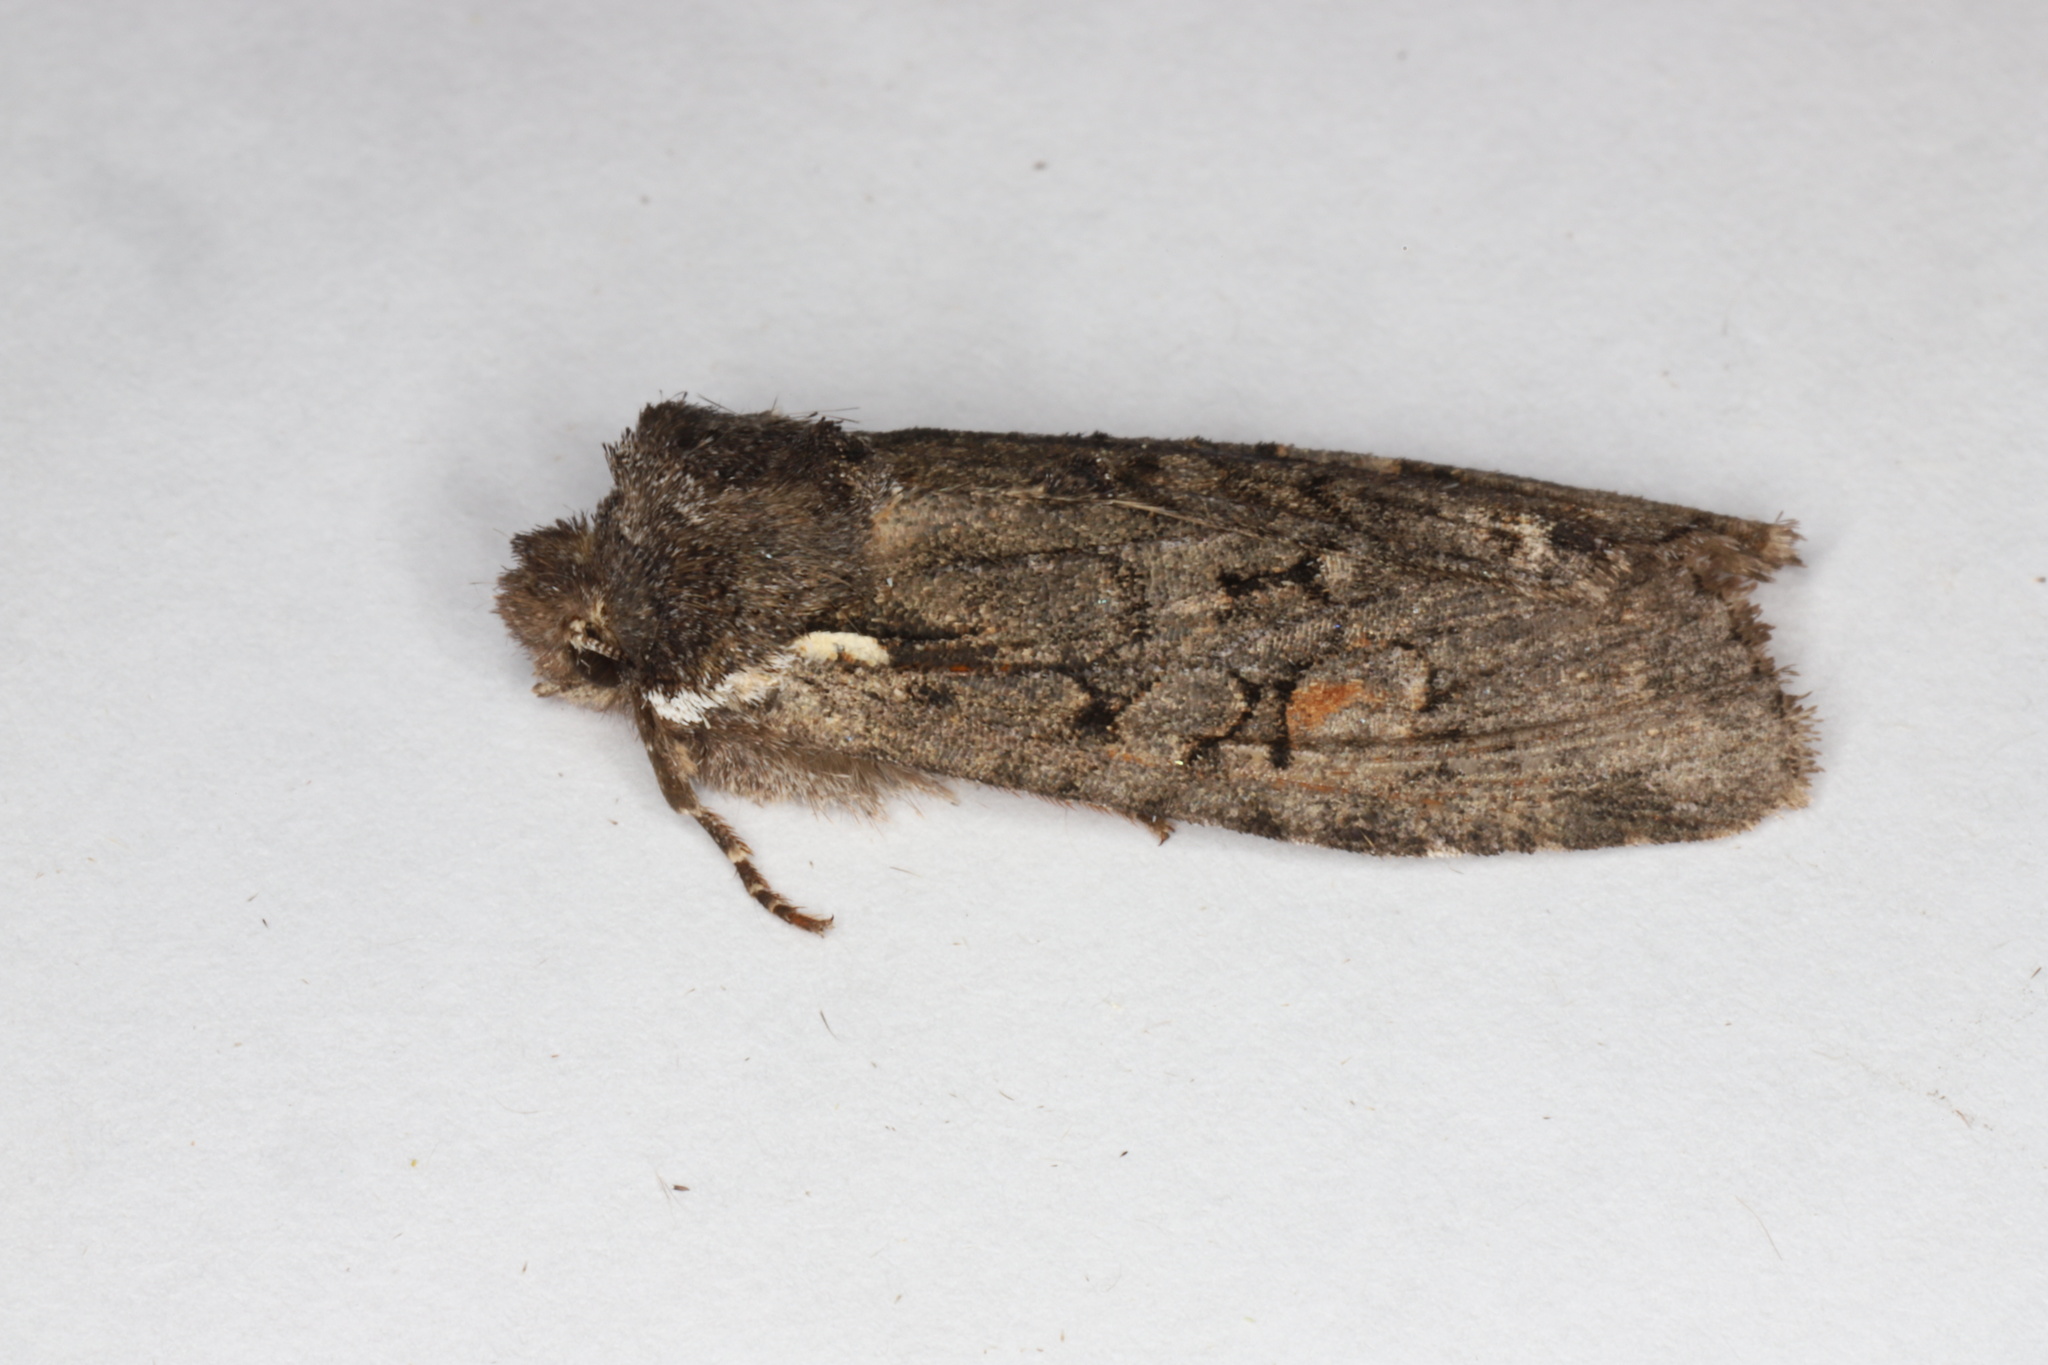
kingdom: Animalia
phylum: Arthropoda
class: Insecta
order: Lepidoptera
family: Noctuidae
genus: Lithophane
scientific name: Lithophane pexata
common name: Plush-naped pinion moth
